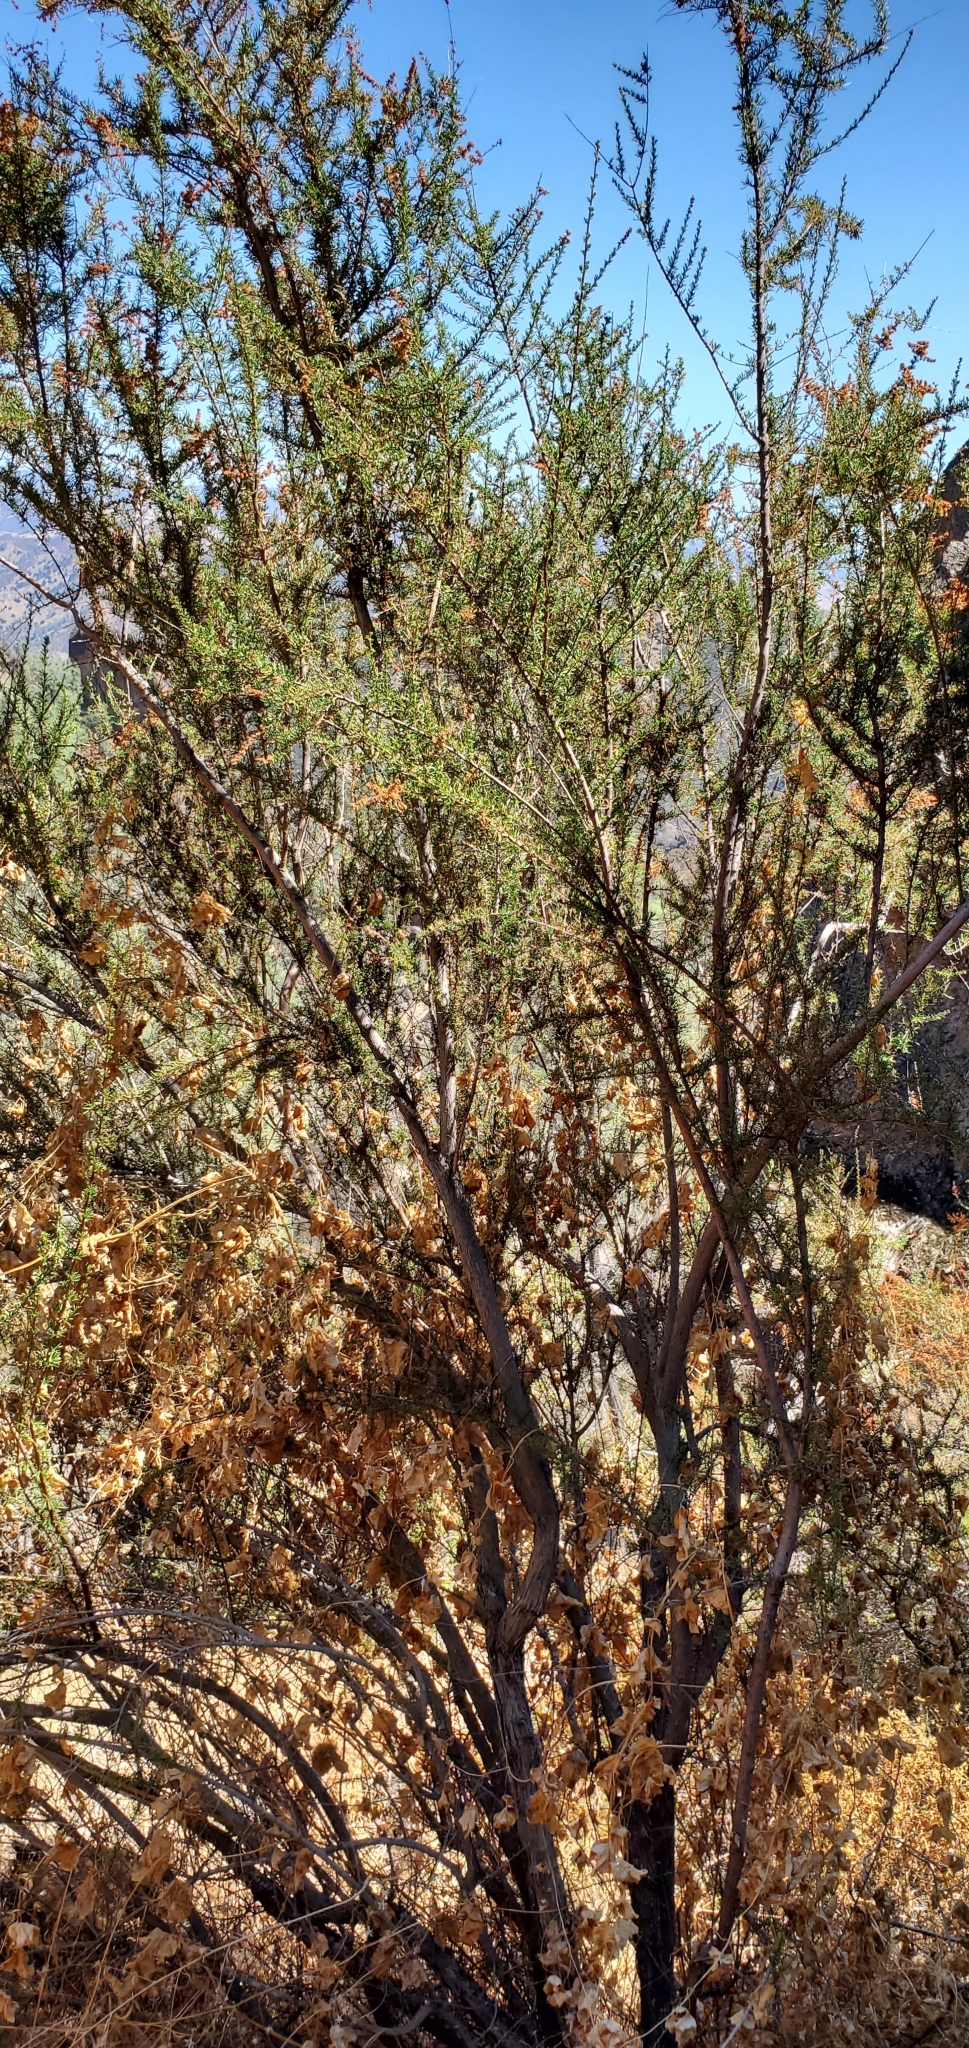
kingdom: Plantae
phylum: Tracheophyta
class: Magnoliopsida
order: Rosales
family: Rosaceae
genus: Adenostoma
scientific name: Adenostoma fasciculatum
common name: Chamise
